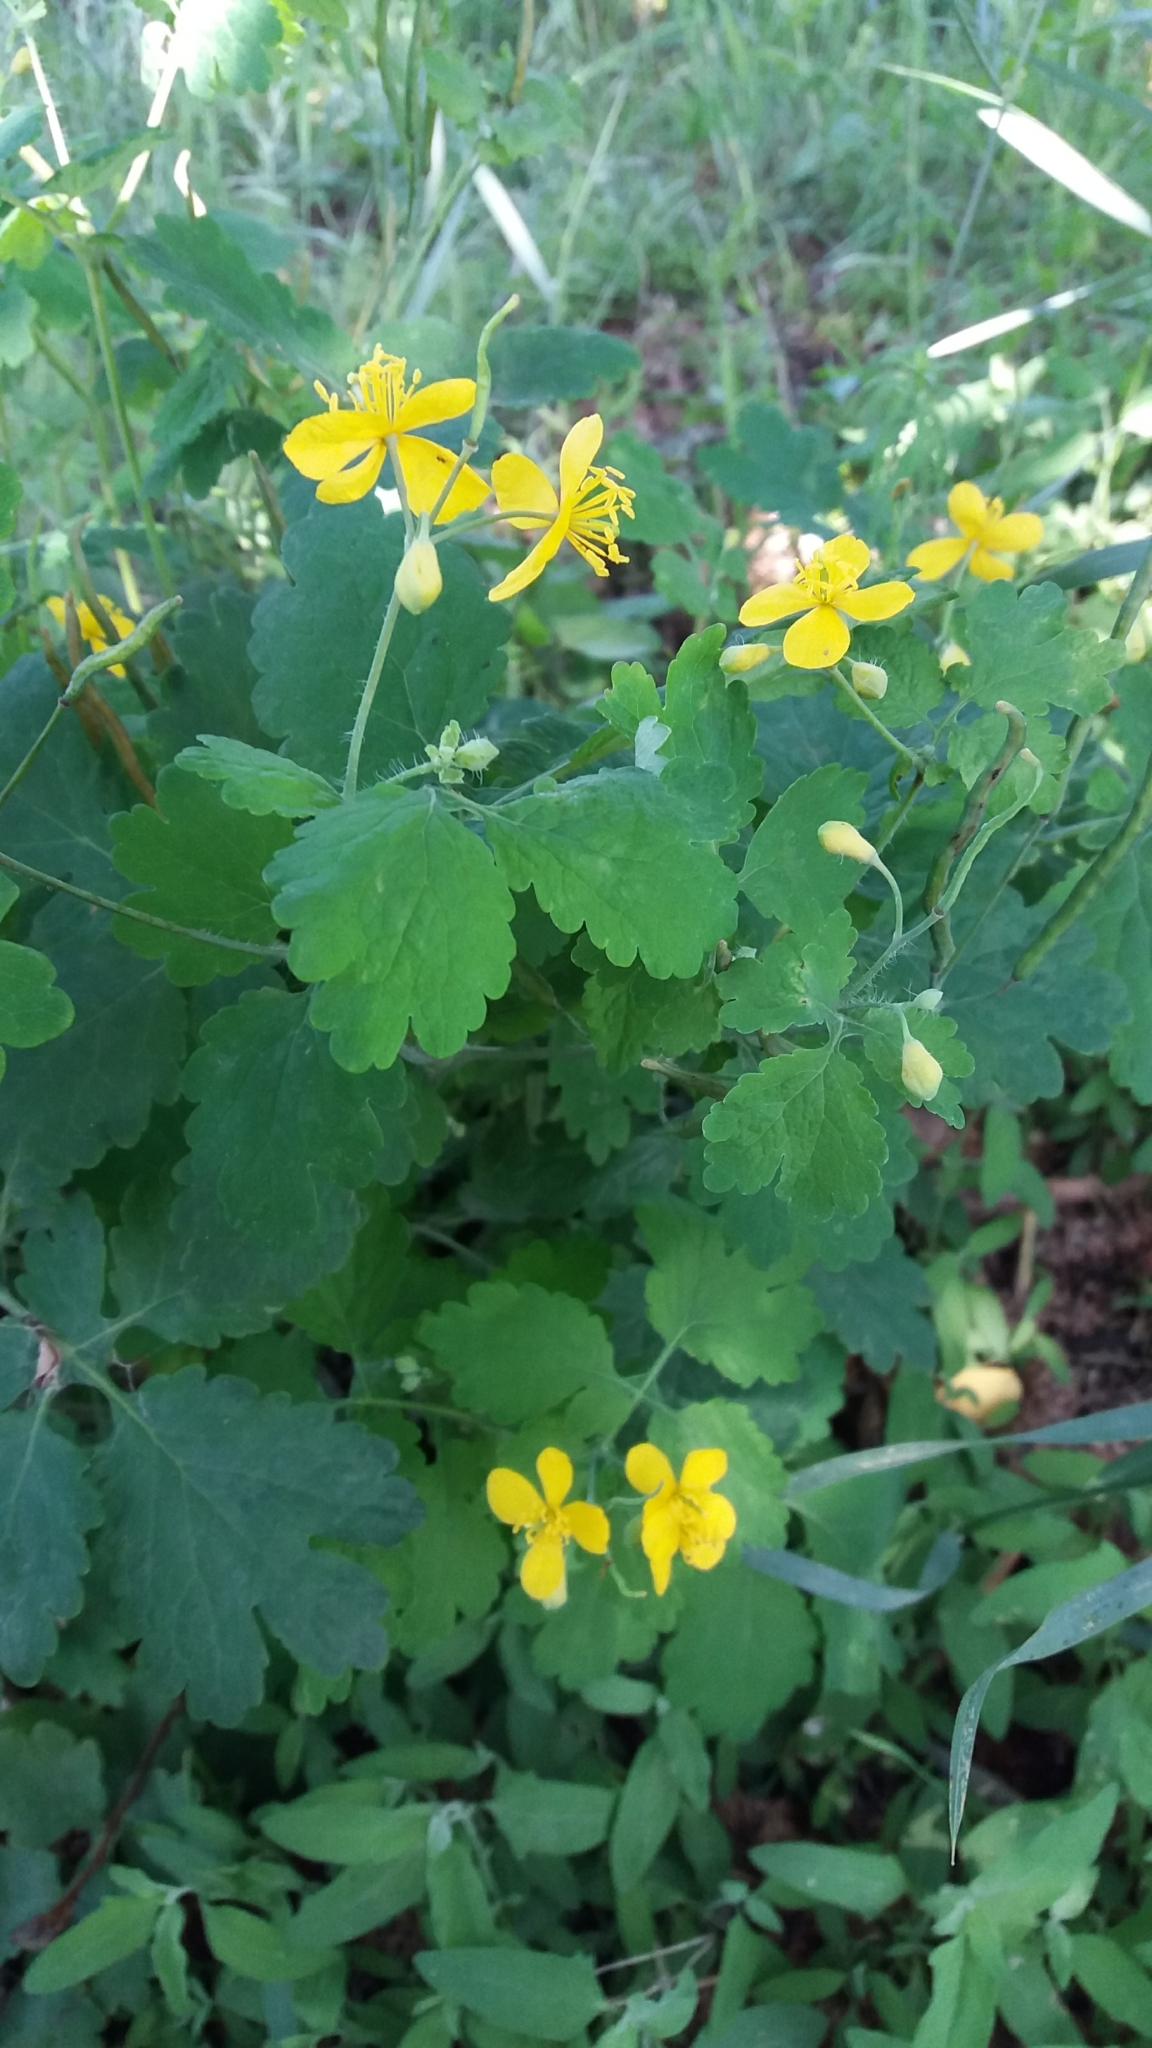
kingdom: Plantae
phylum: Tracheophyta
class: Magnoliopsida
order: Ranunculales
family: Papaveraceae
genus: Chelidonium
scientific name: Chelidonium majus
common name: Greater celandine
